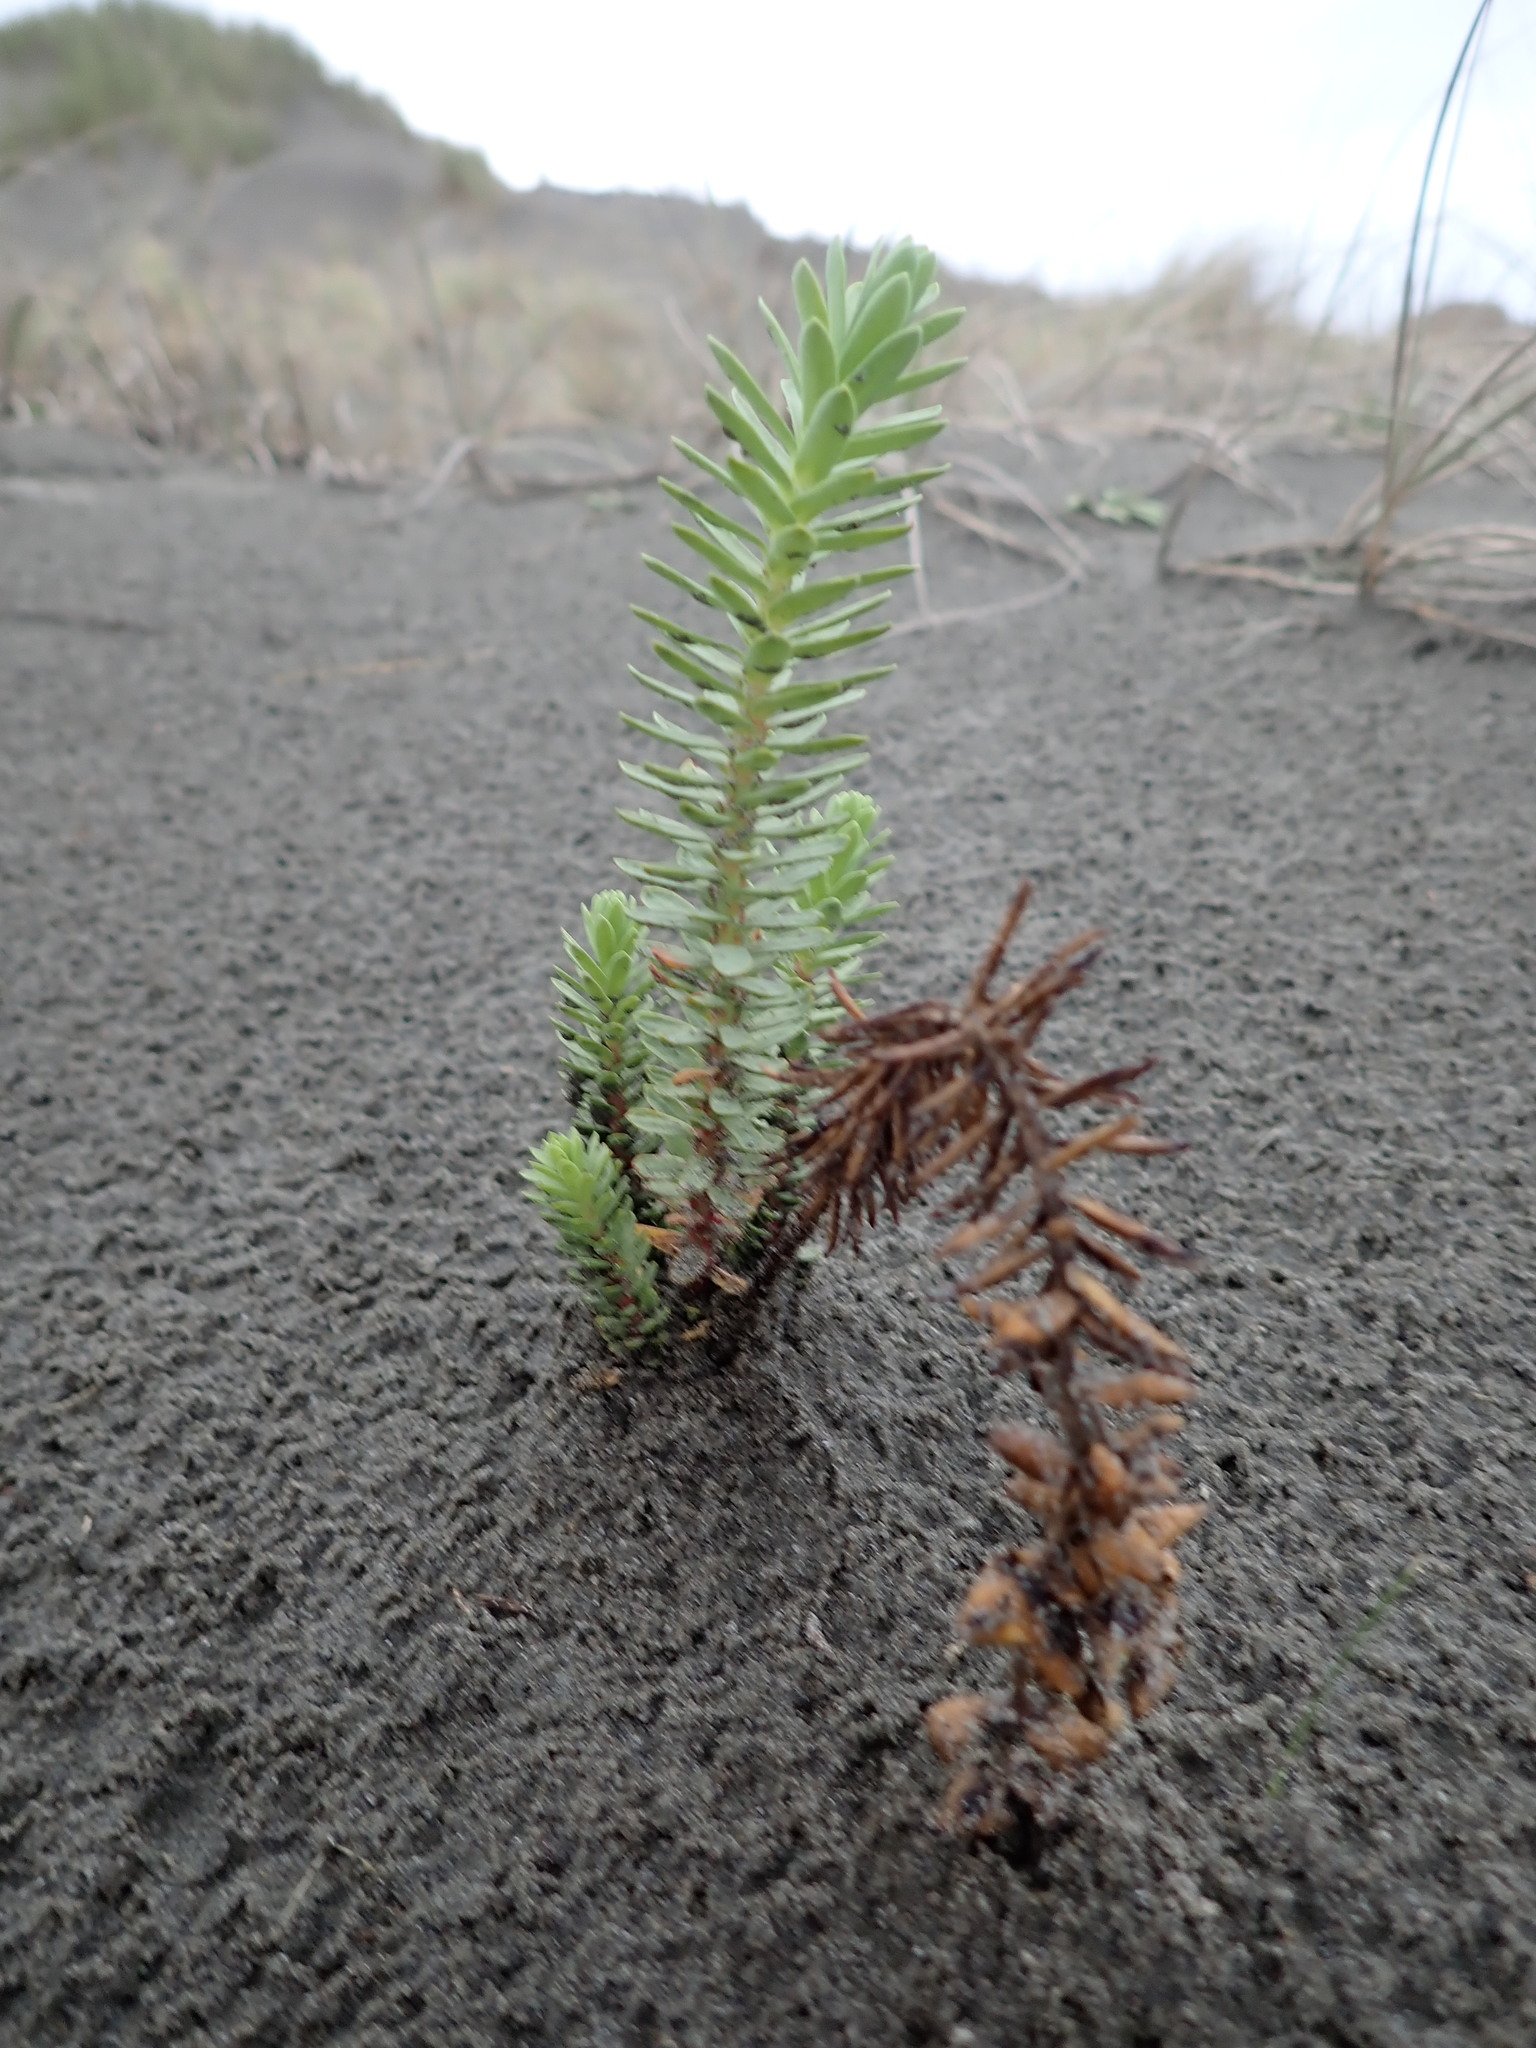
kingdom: Plantae
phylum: Tracheophyta
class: Magnoliopsida
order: Malpighiales
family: Euphorbiaceae
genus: Euphorbia
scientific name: Euphorbia paralias
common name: Sea spurge
